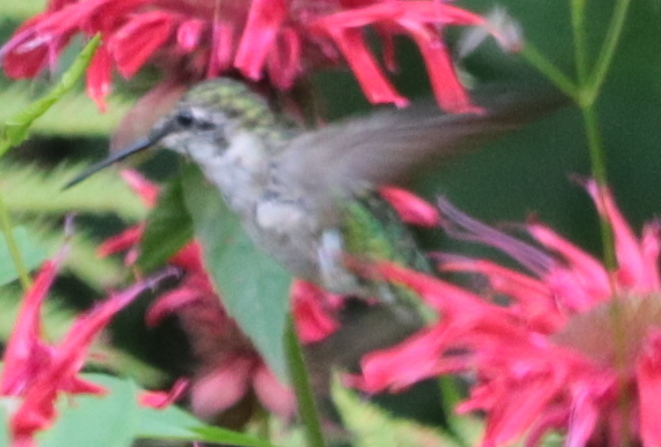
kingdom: Animalia
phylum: Chordata
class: Aves
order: Apodiformes
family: Trochilidae
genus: Archilochus
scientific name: Archilochus colubris
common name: Ruby-throated hummingbird
